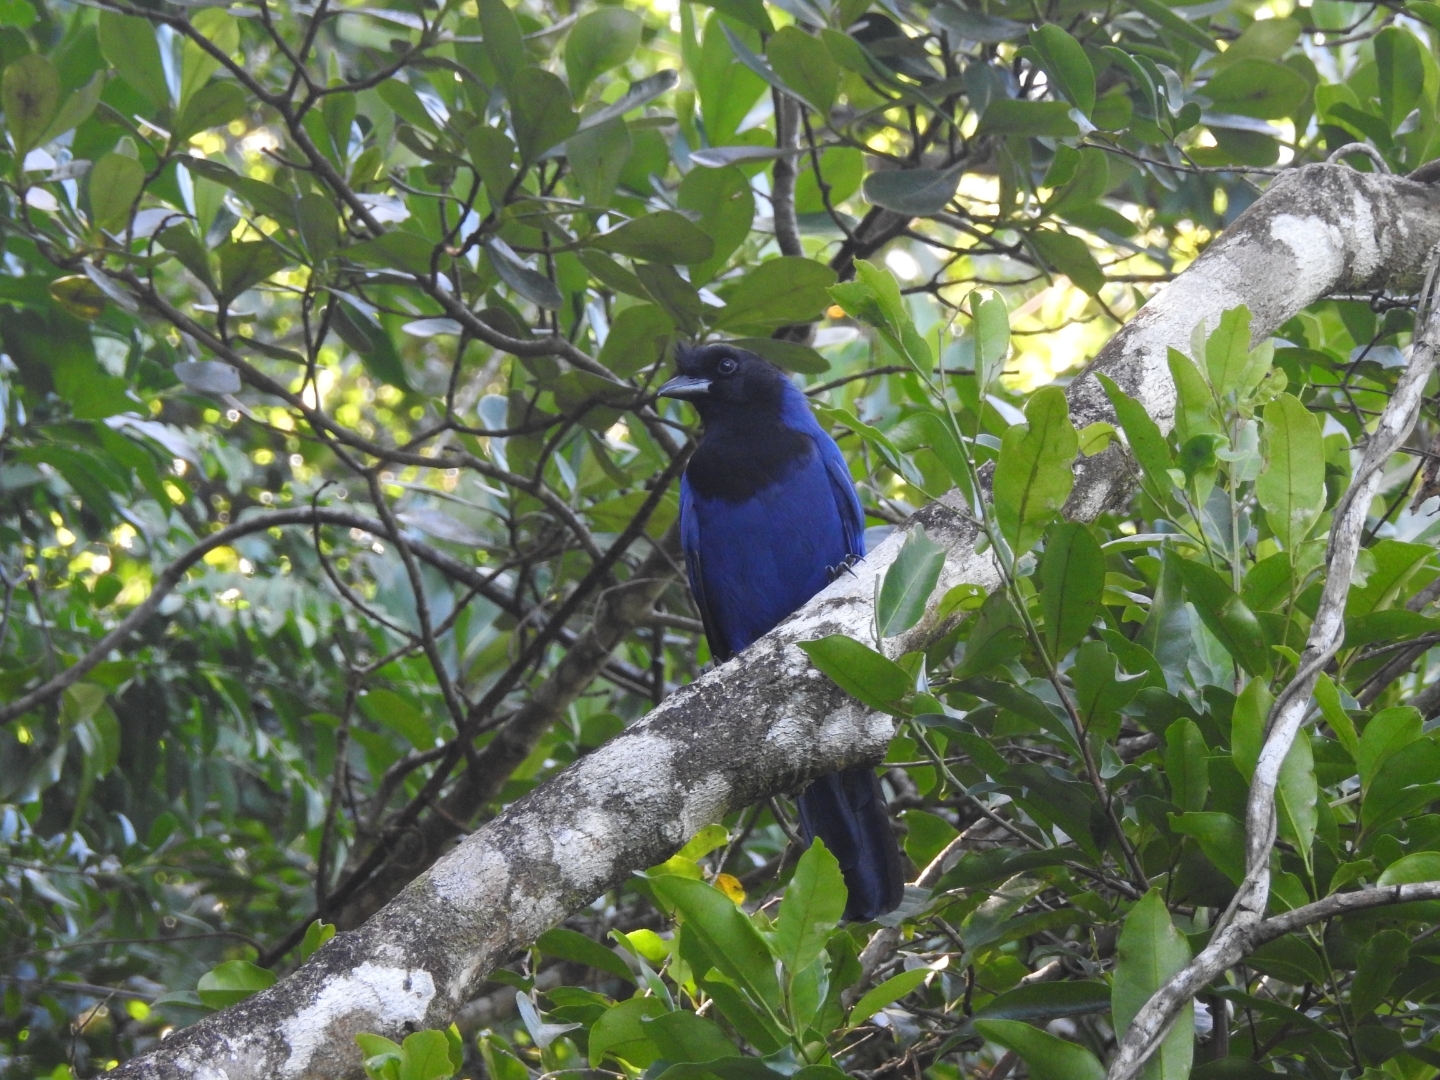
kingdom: Animalia
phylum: Chordata
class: Aves
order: Passeriformes
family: Corvidae
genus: Cyanocorax
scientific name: Cyanocorax caeruleus
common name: Azure jay
